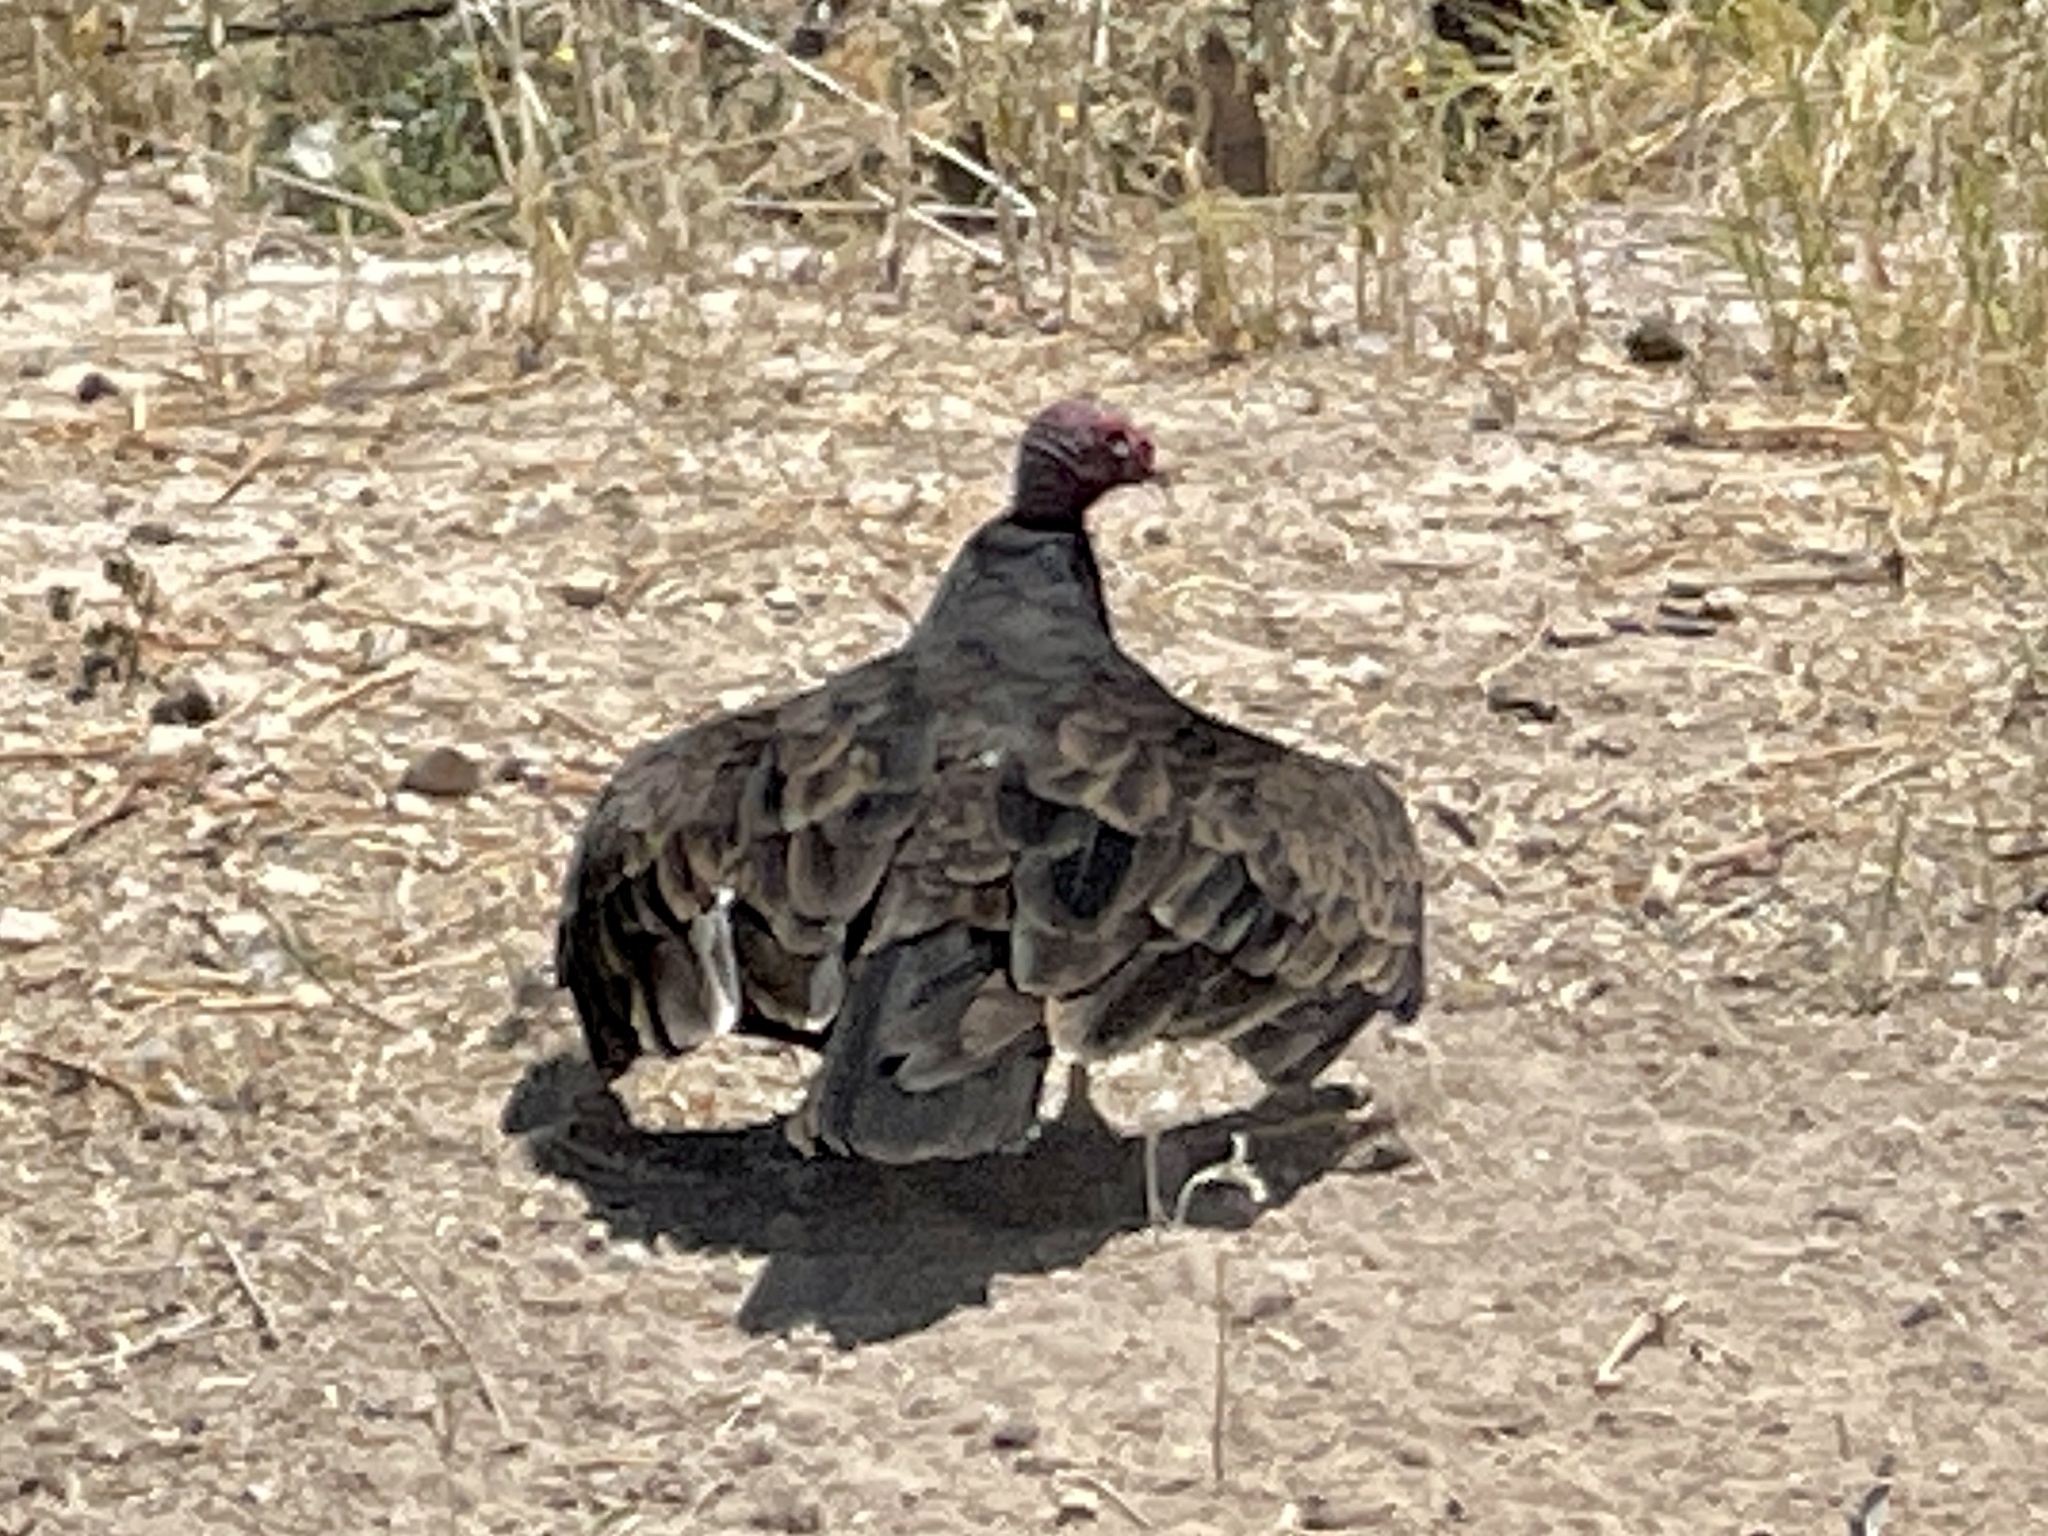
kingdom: Animalia
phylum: Chordata
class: Aves
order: Accipitriformes
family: Cathartidae
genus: Cathartes
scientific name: Cathartes aura
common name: Turkey vulture
